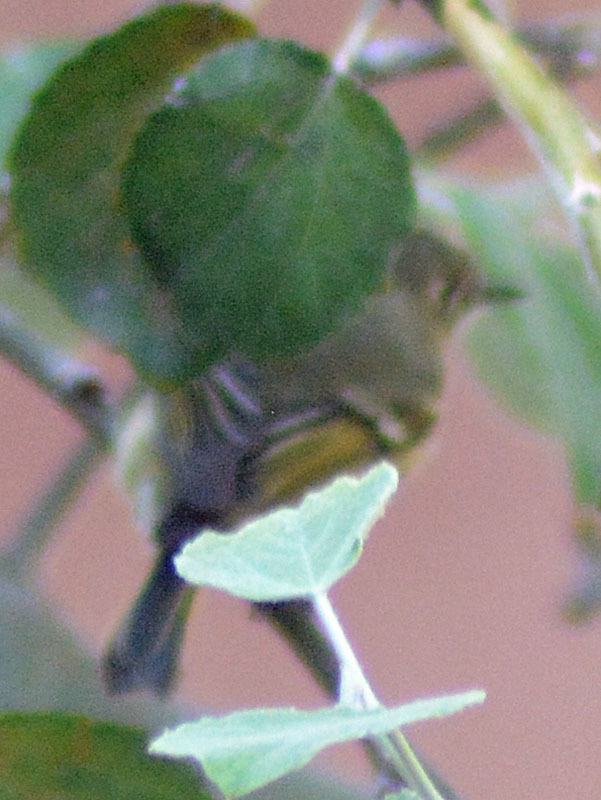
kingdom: Animalia
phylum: Chordata
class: Aves
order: Passeriformes
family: Regulidae
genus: Regulus
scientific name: Regulus calendula
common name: Ruby-crowned kinglet
